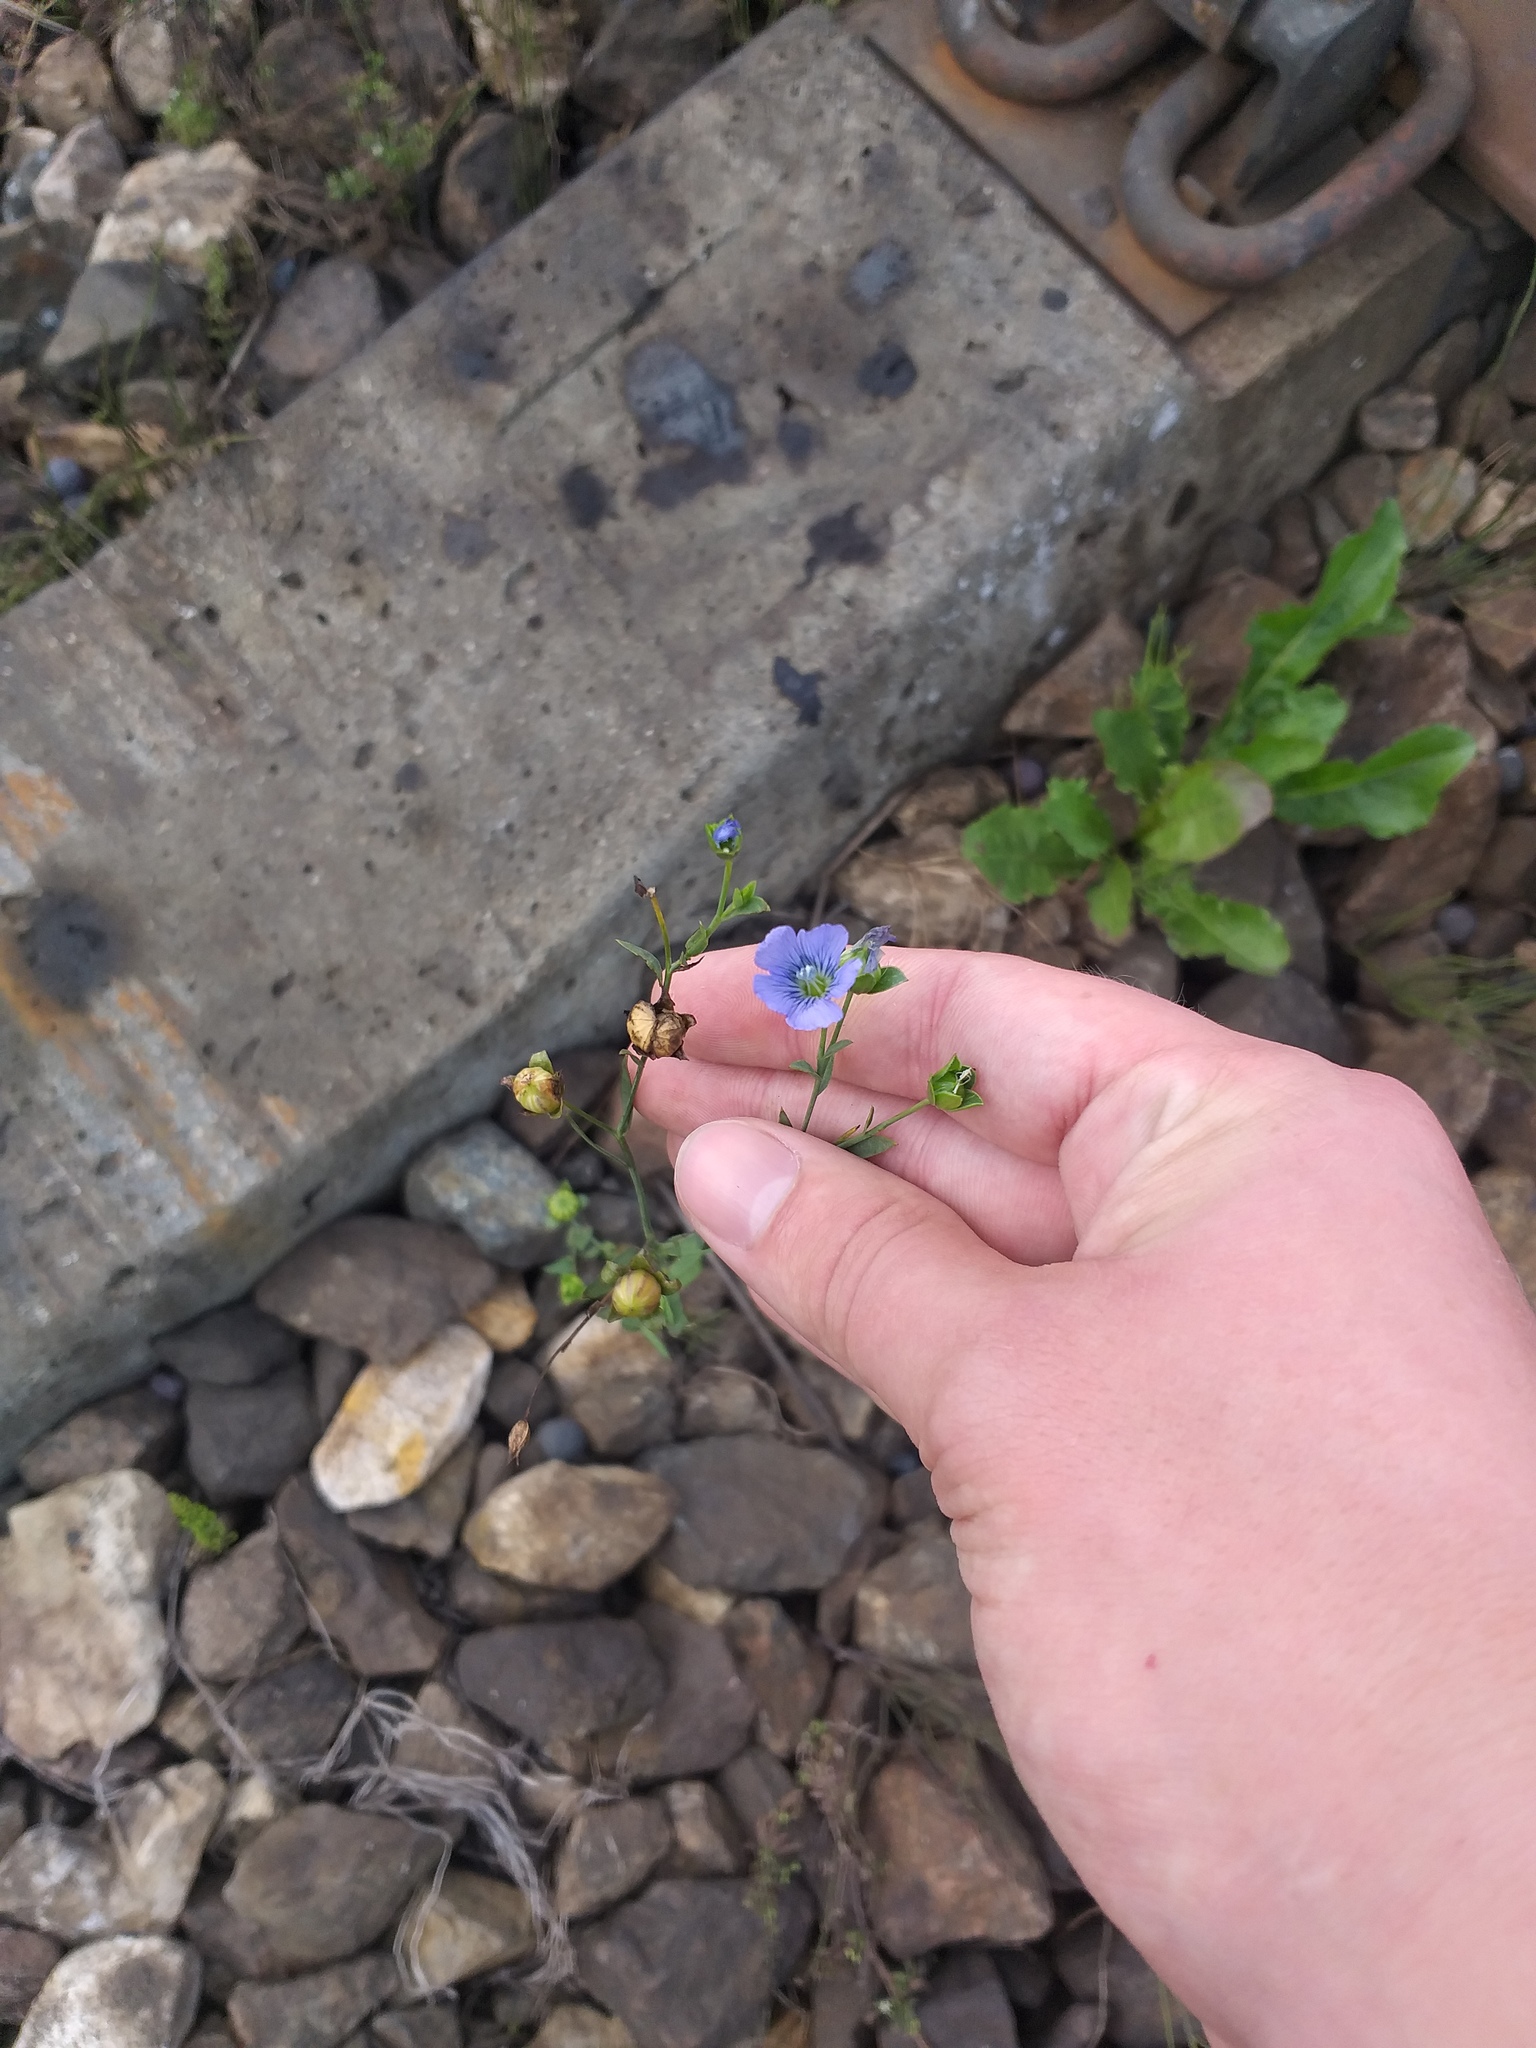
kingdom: Plantae
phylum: Tracheophyta
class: Magnoliopsida
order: Malpighiales
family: Linaceae
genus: Linum
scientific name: Linum usitatissimum
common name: Flax
